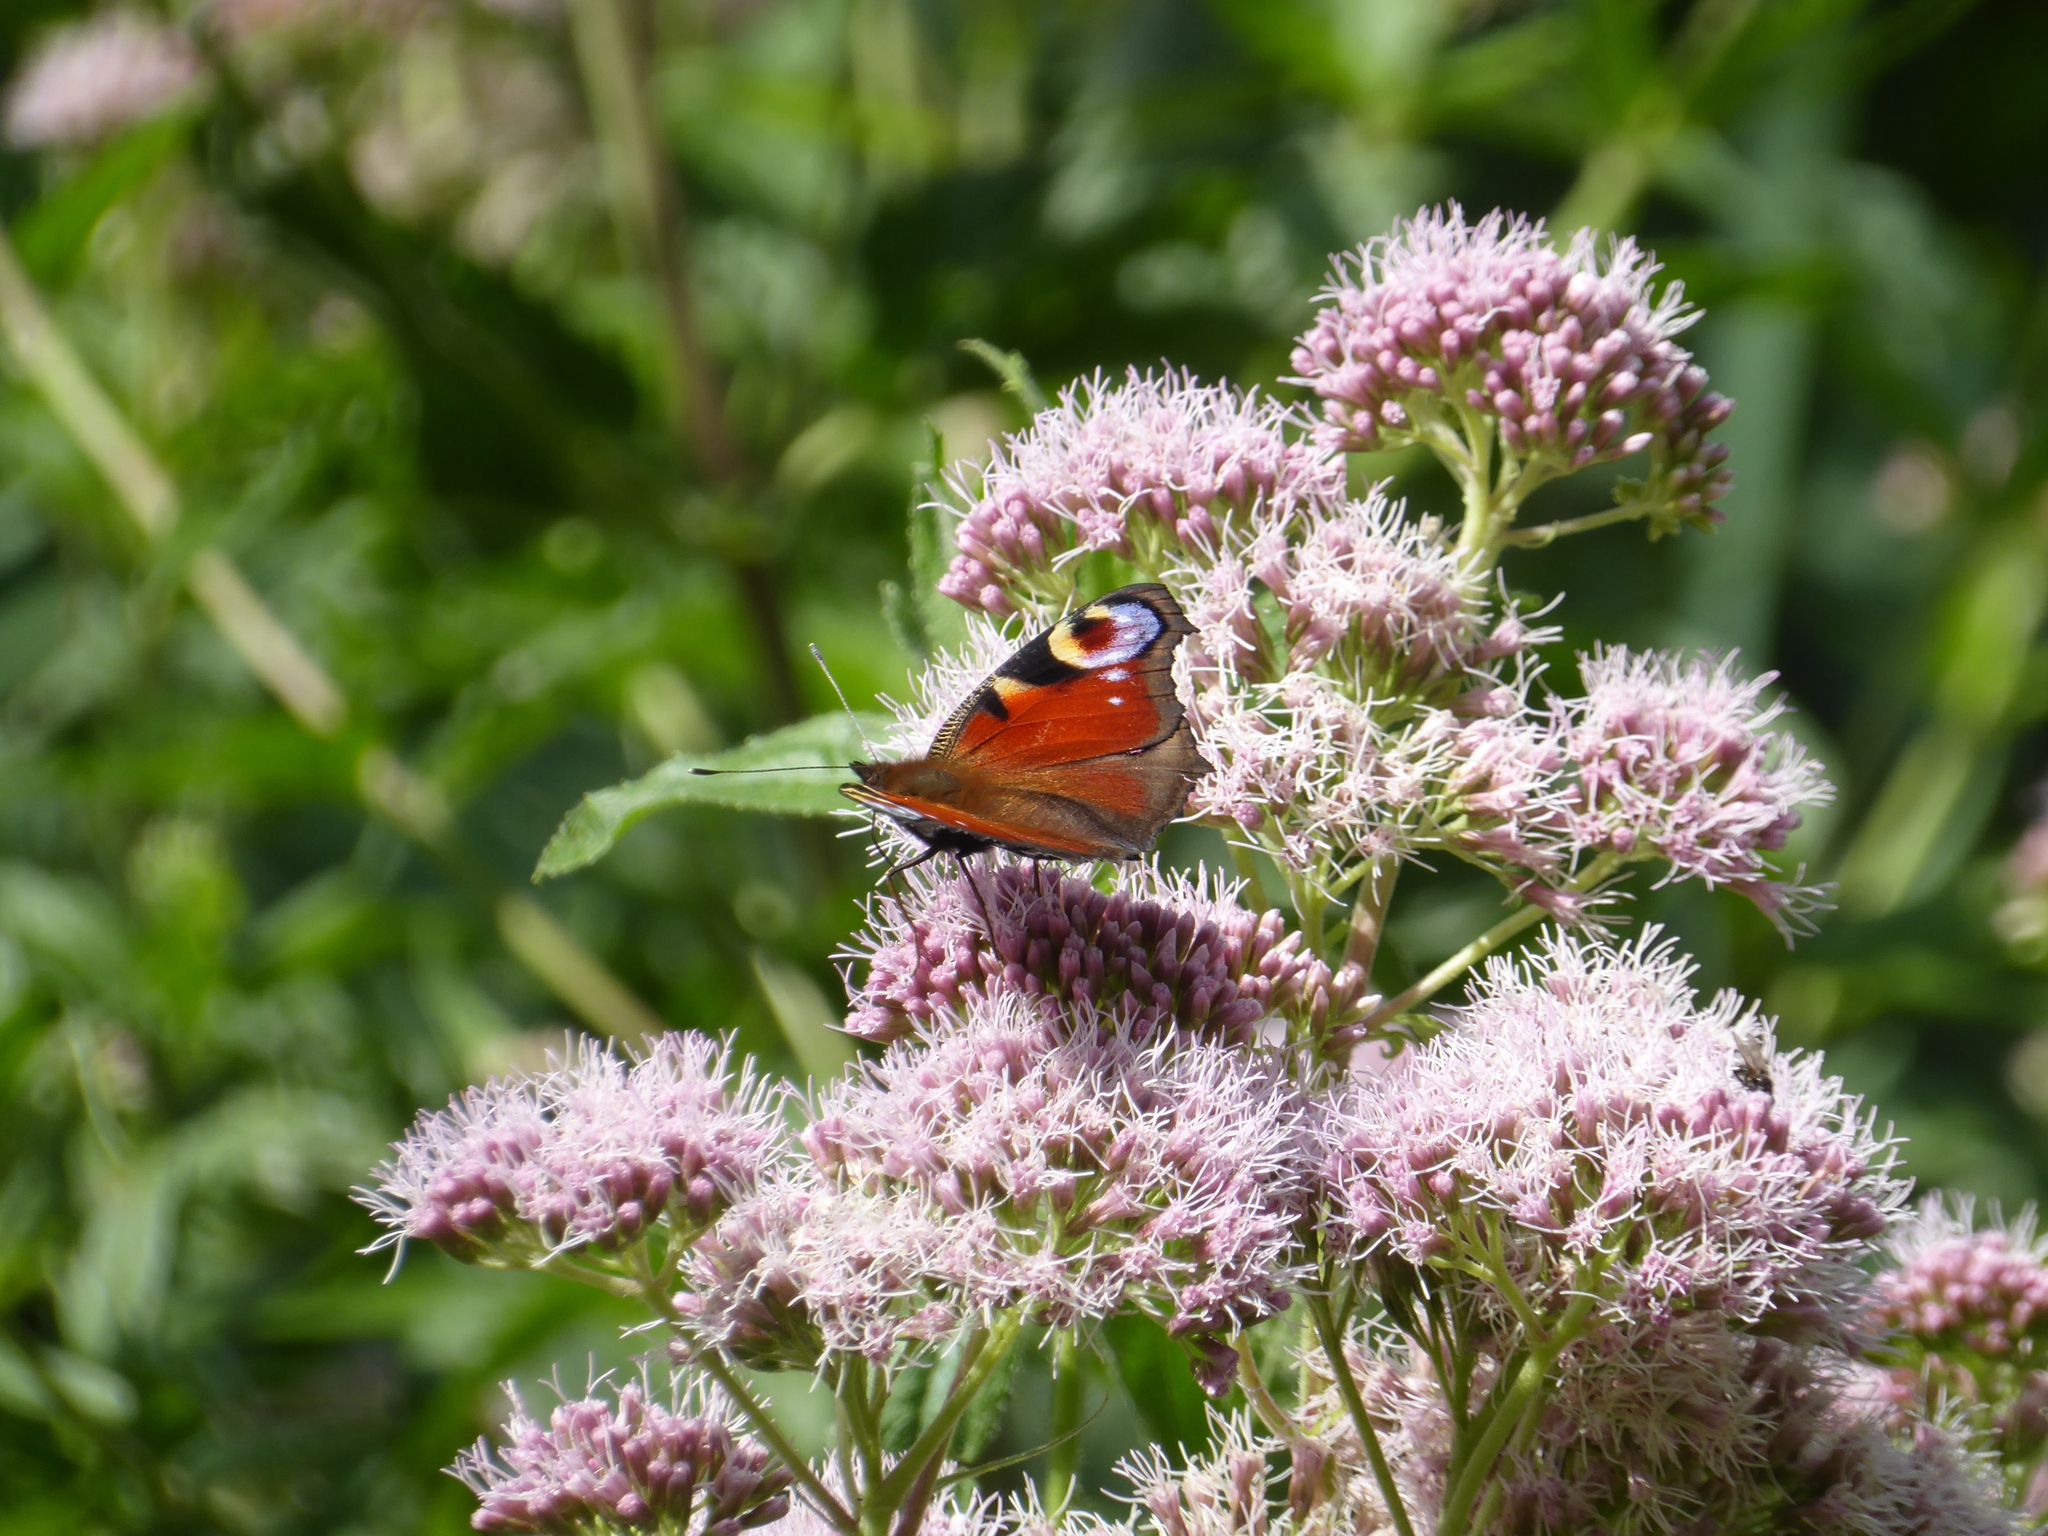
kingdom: Animalia
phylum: Arthropoda
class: Insecta
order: Lepidoptera
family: Nymphalidae
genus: Aglais
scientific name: Aglais io
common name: Peacock
